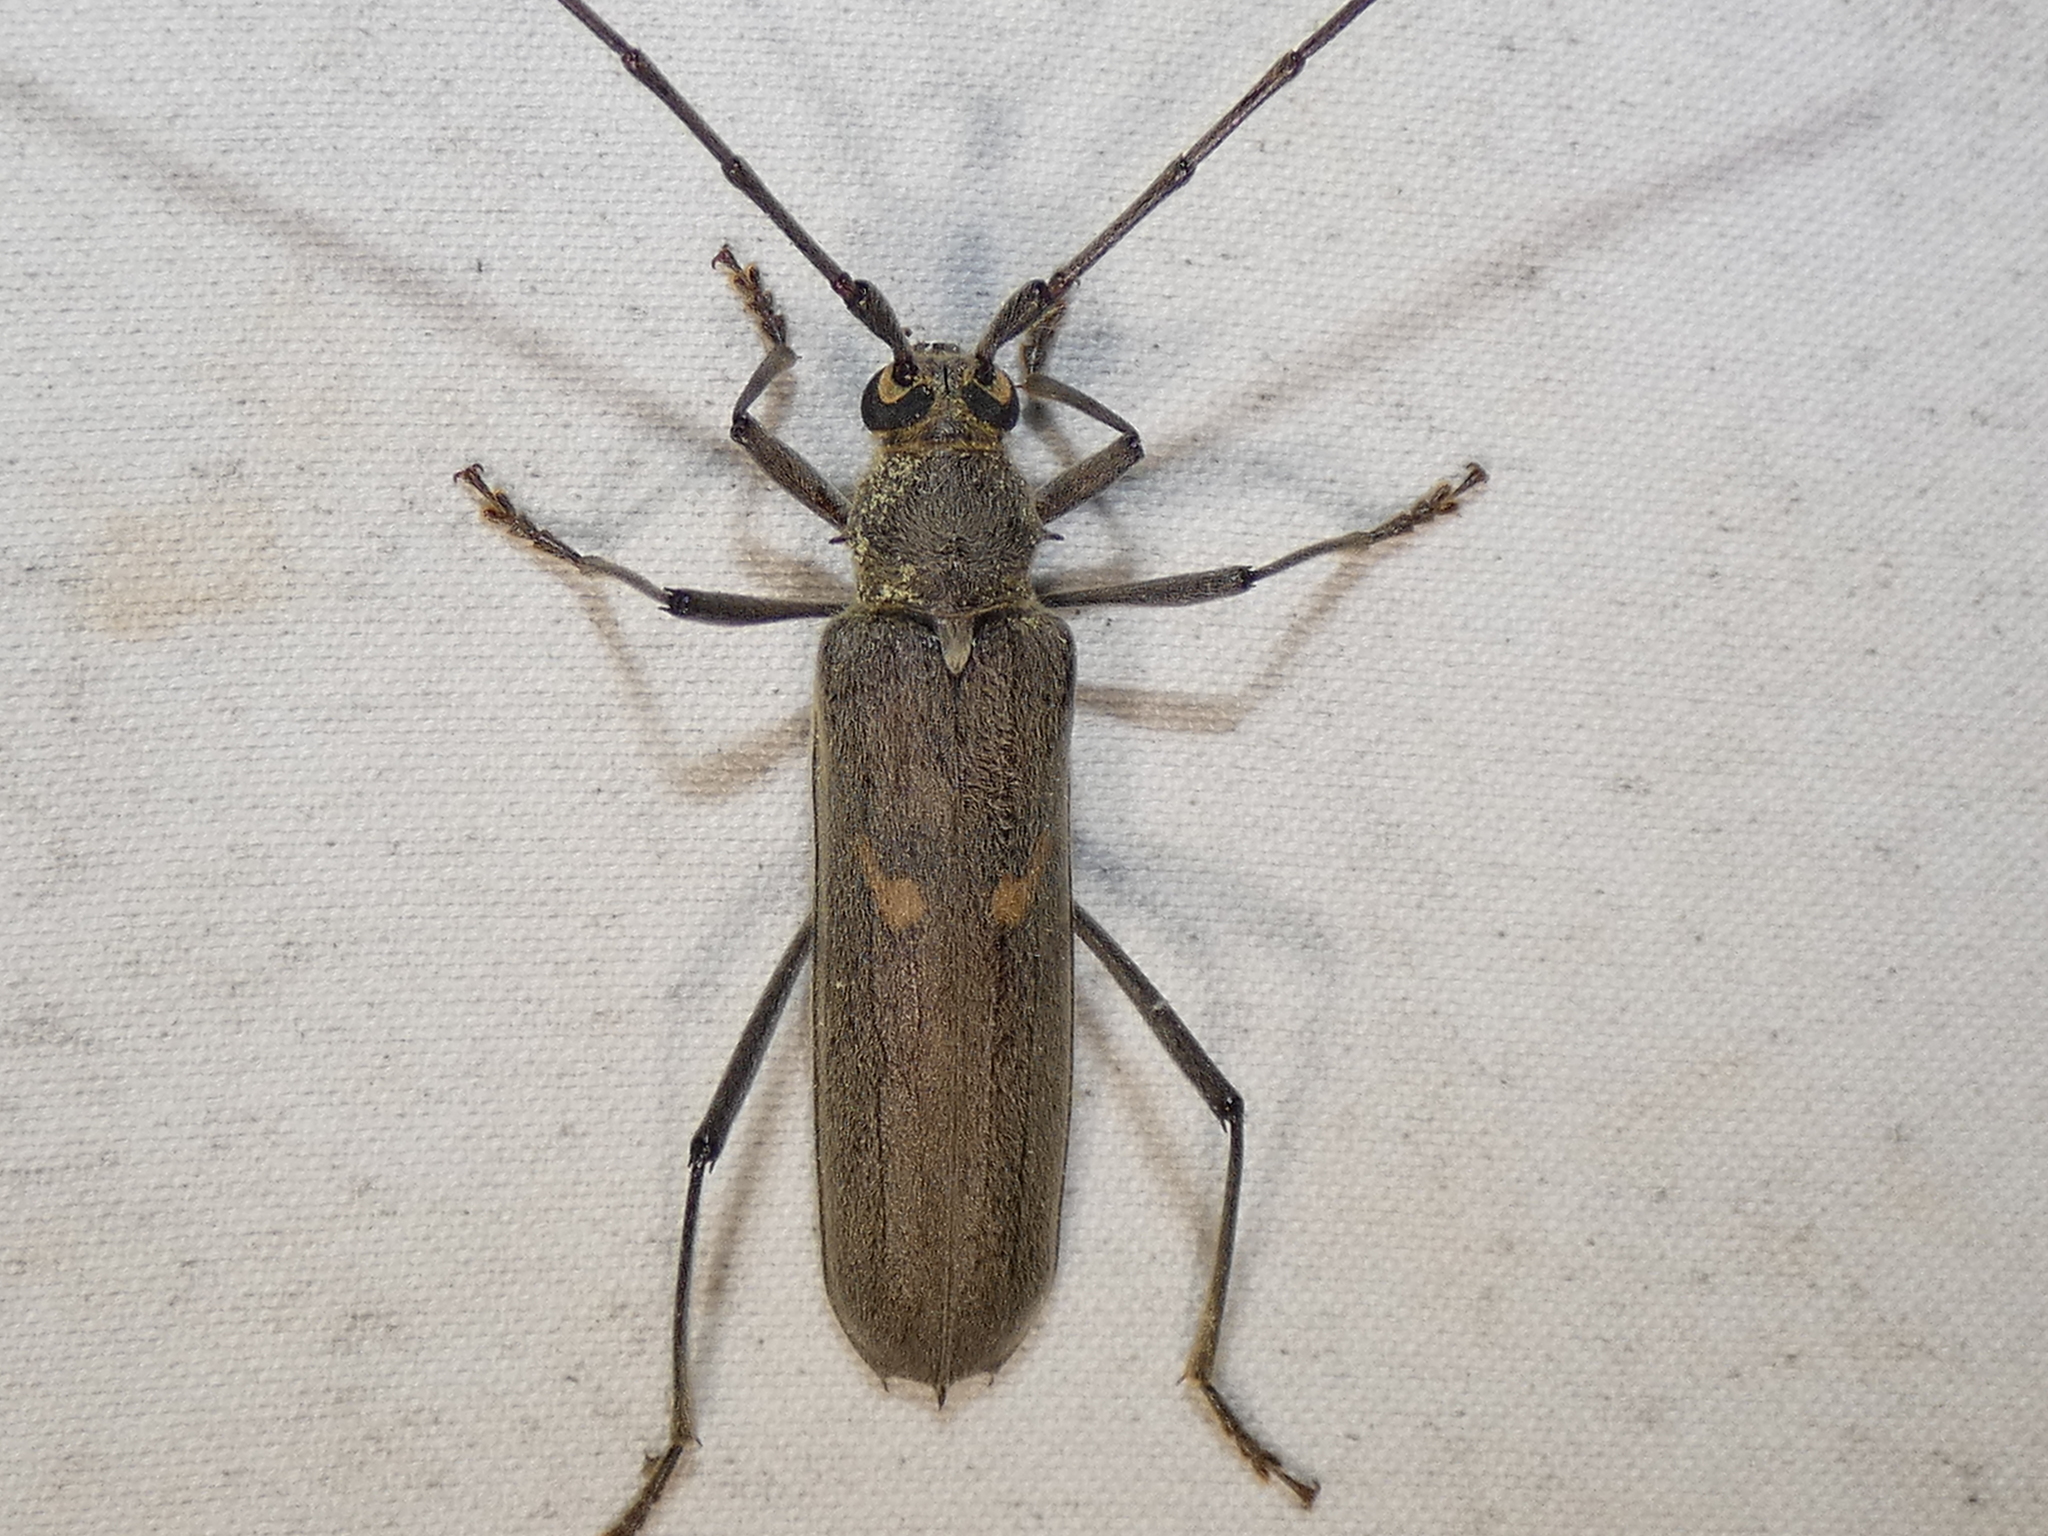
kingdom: Animalia
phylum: Arthropoda
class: Insecta
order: Coleoptera
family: Cerambycidae
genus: Knulliana
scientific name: Knulliana cincta
